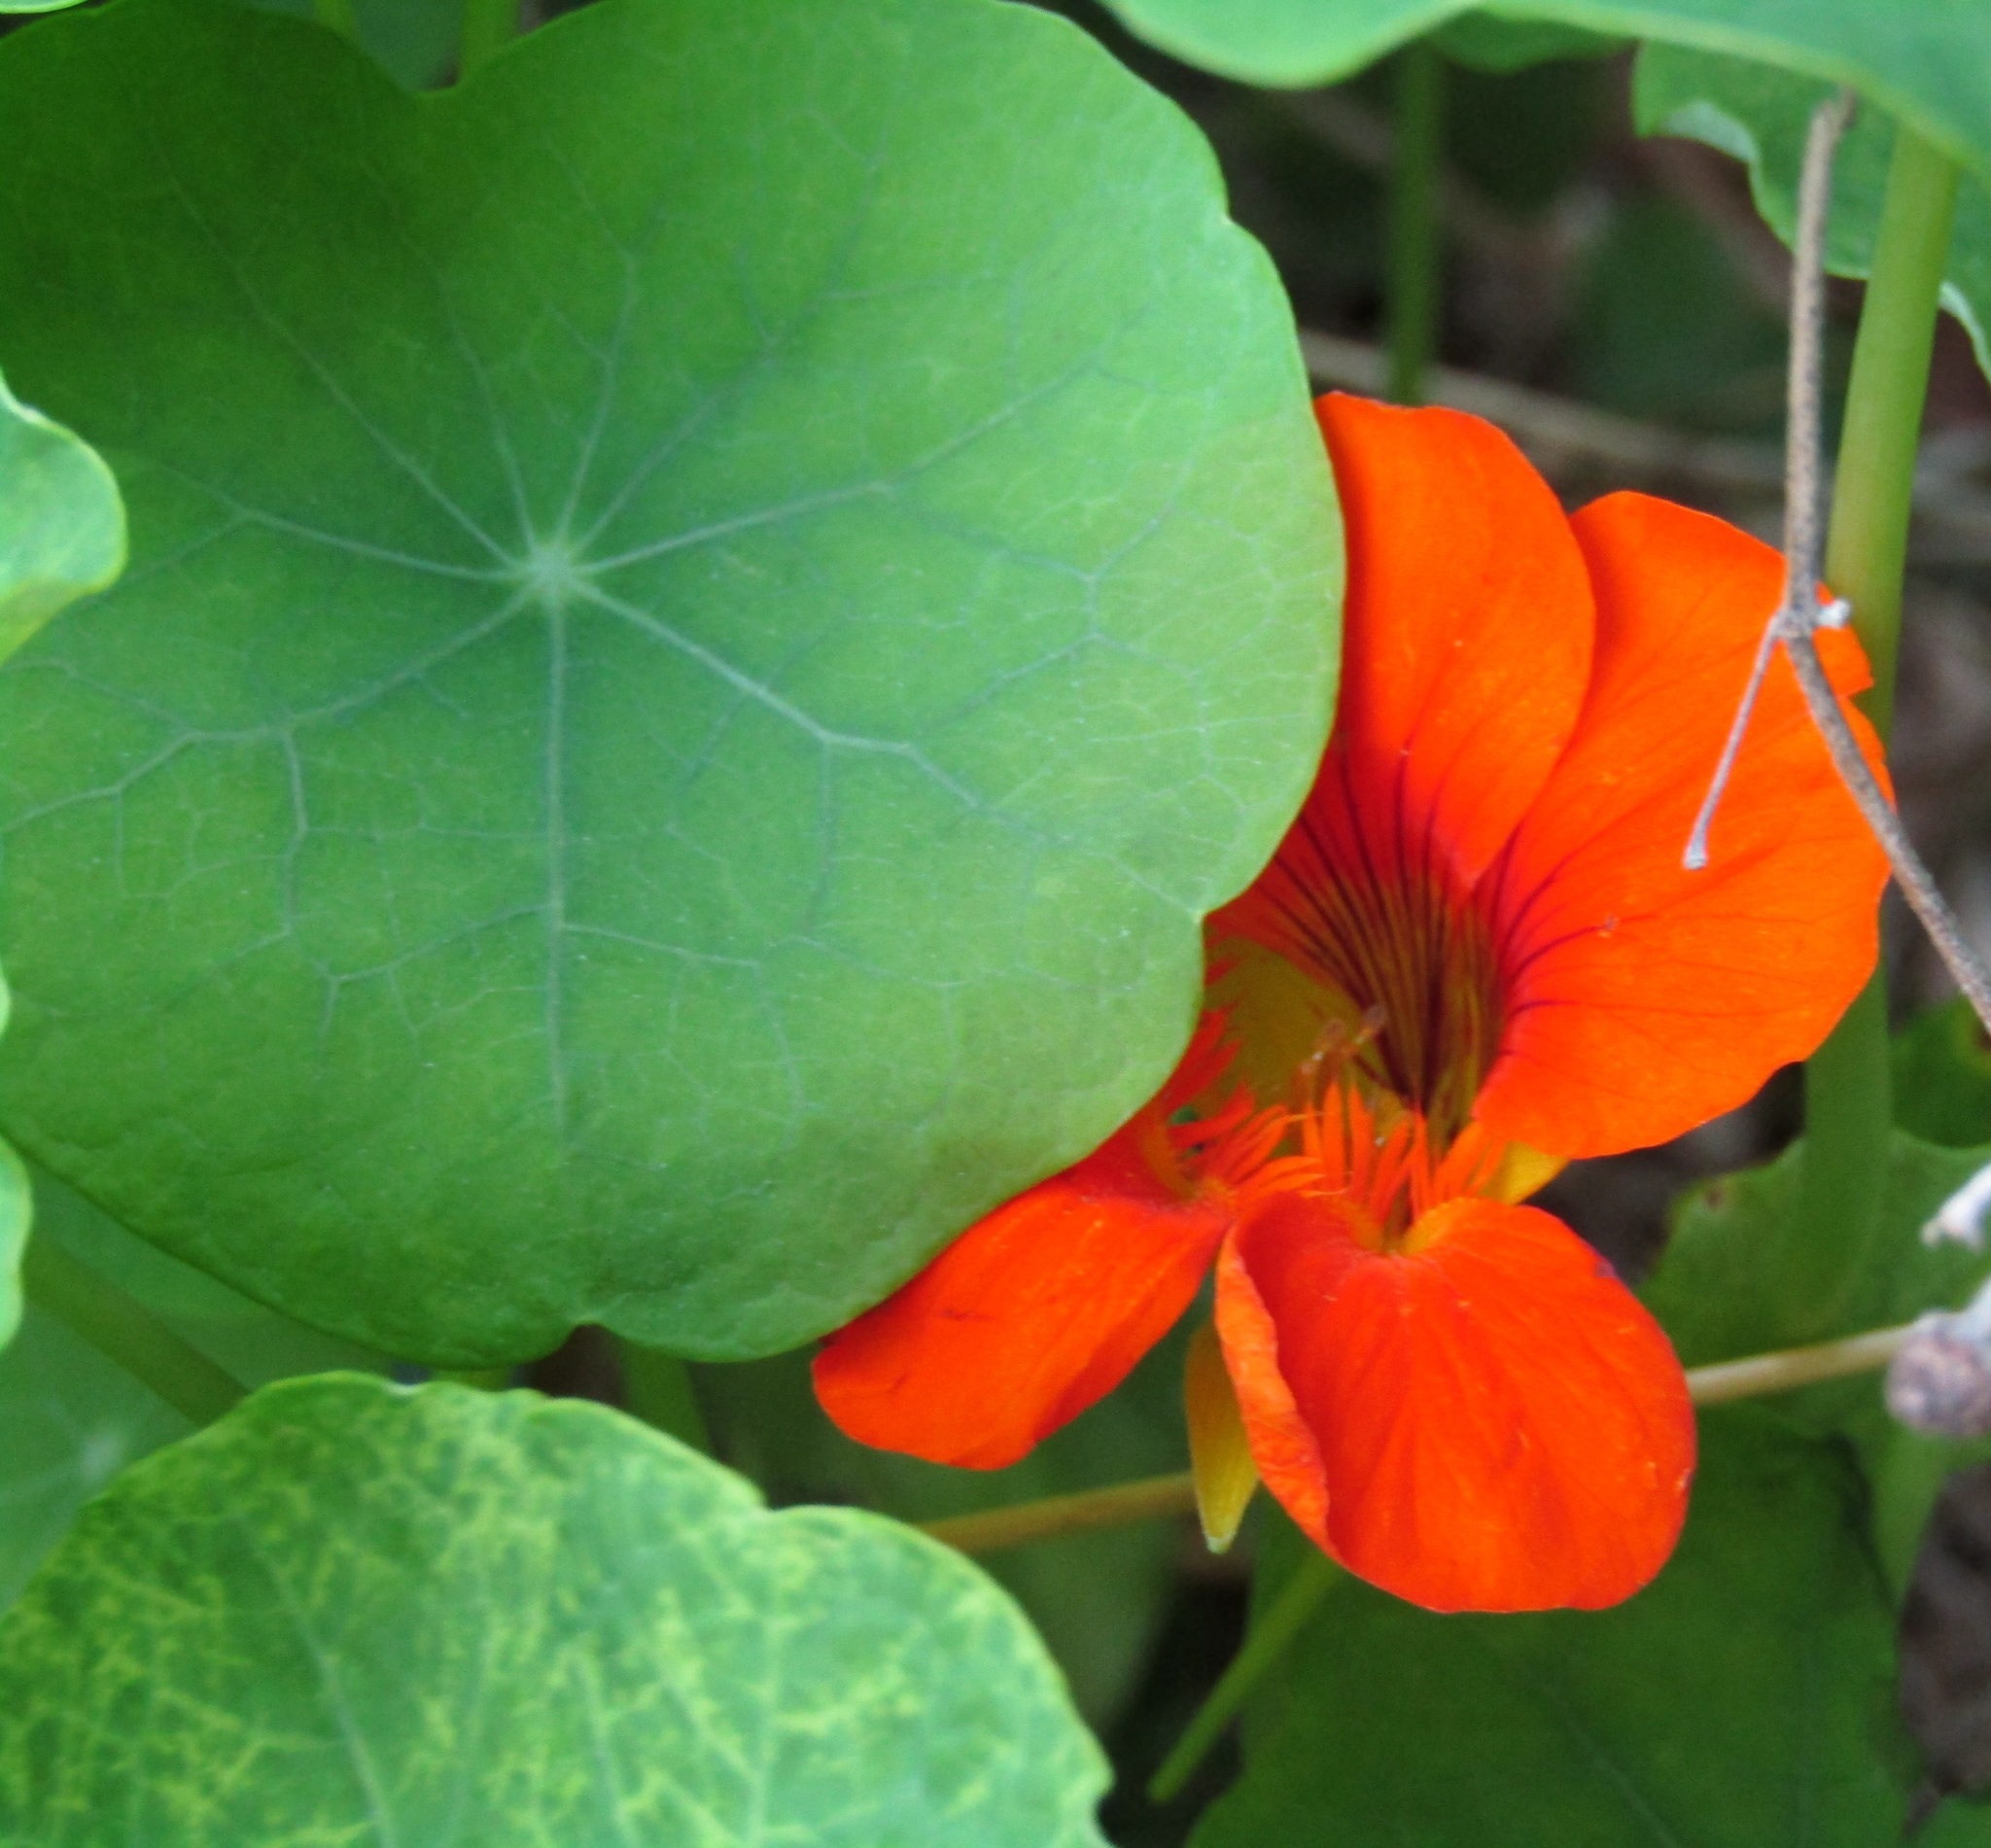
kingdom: Plantae
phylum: Tracheophyta
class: Magnoliopsida
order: Brassicales
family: Tropaeolaceae
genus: Tropaeolum
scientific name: Tropaeolum majus
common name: Nasturtium
